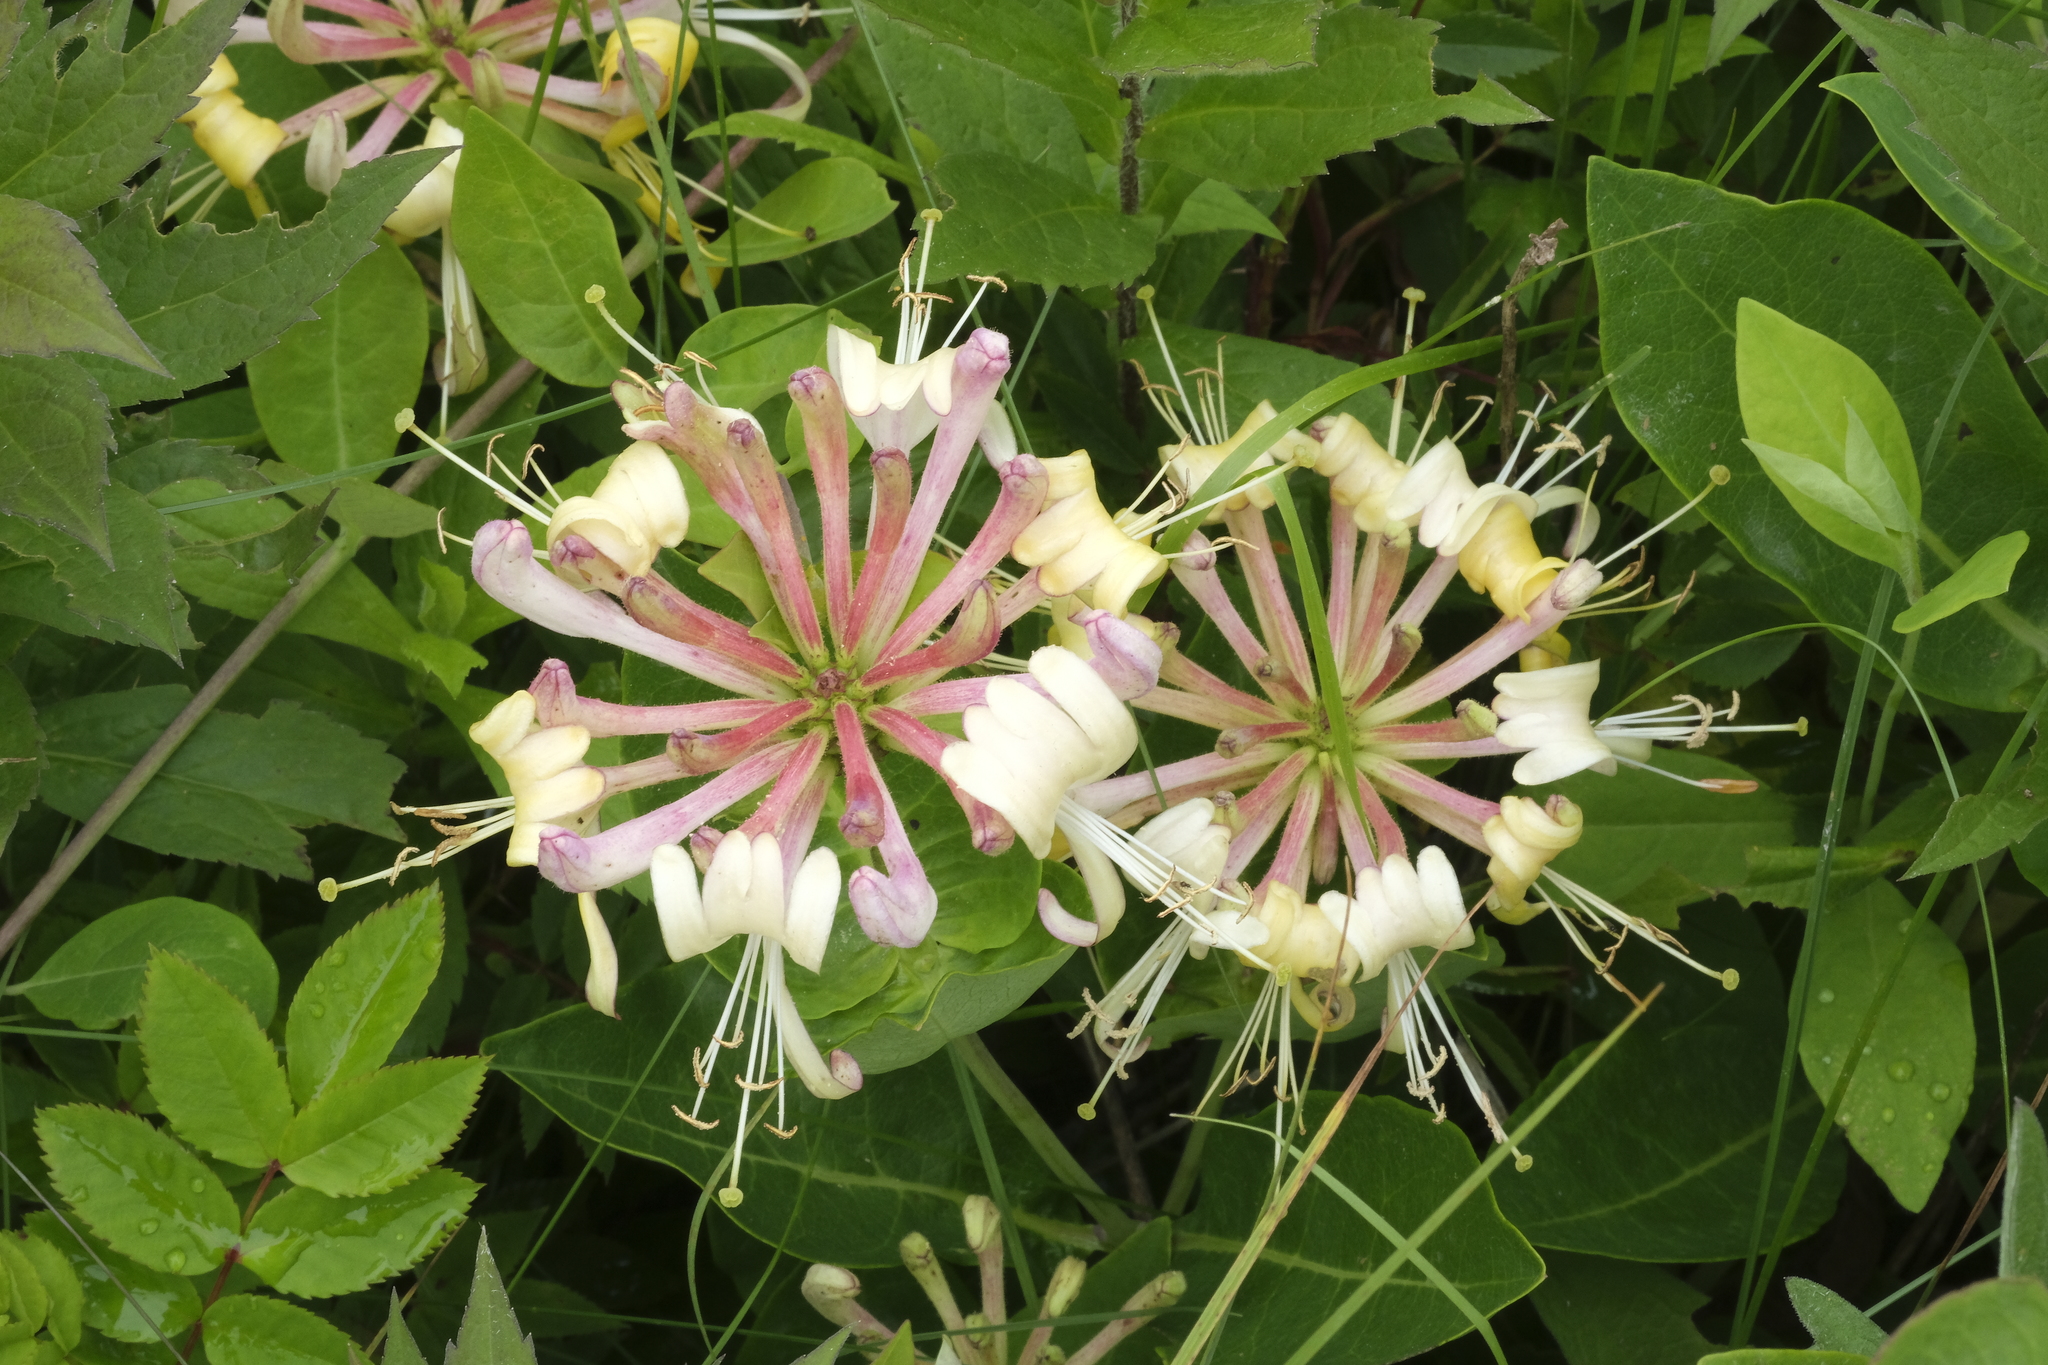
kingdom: Plantae
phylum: Tracheophyta
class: Magnoliopsida
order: Dipsacales
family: Caprifoliaceae
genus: Lonicera
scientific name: Lonicera periclymenum
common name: European honeysuckle
